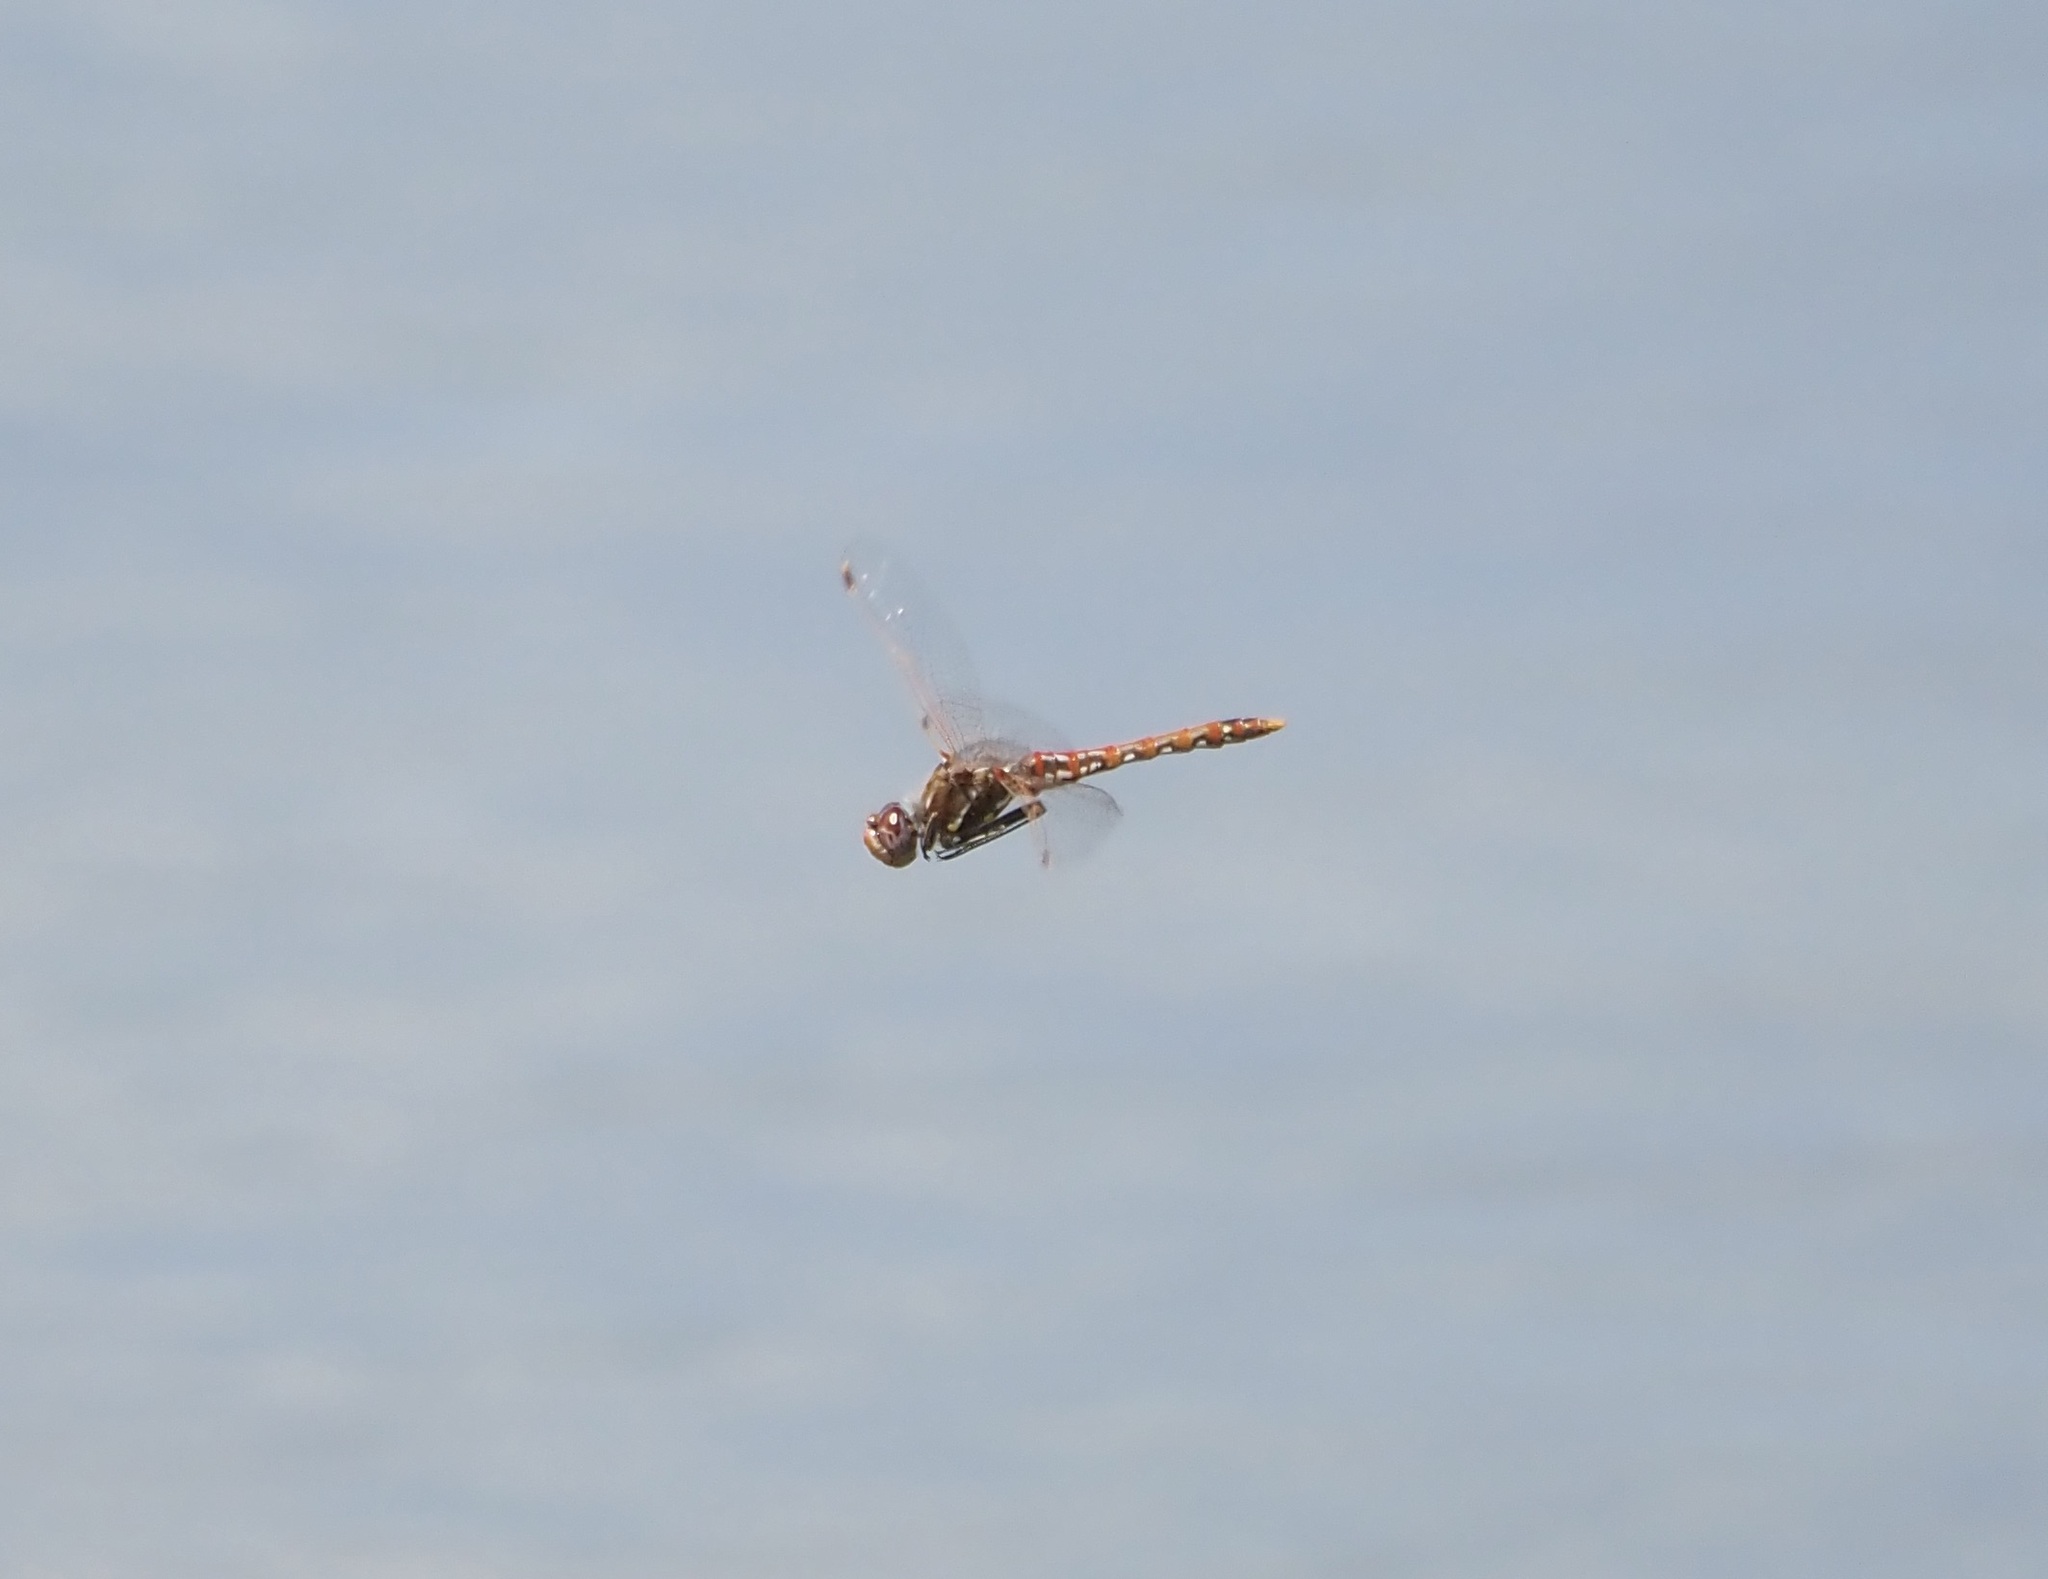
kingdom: Animalia
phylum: Arthropoda
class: Insecta
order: Odonata
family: Libellulidae
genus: Sympetrum
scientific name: Sympetrum corruptum
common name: Variegated meadowhawk
